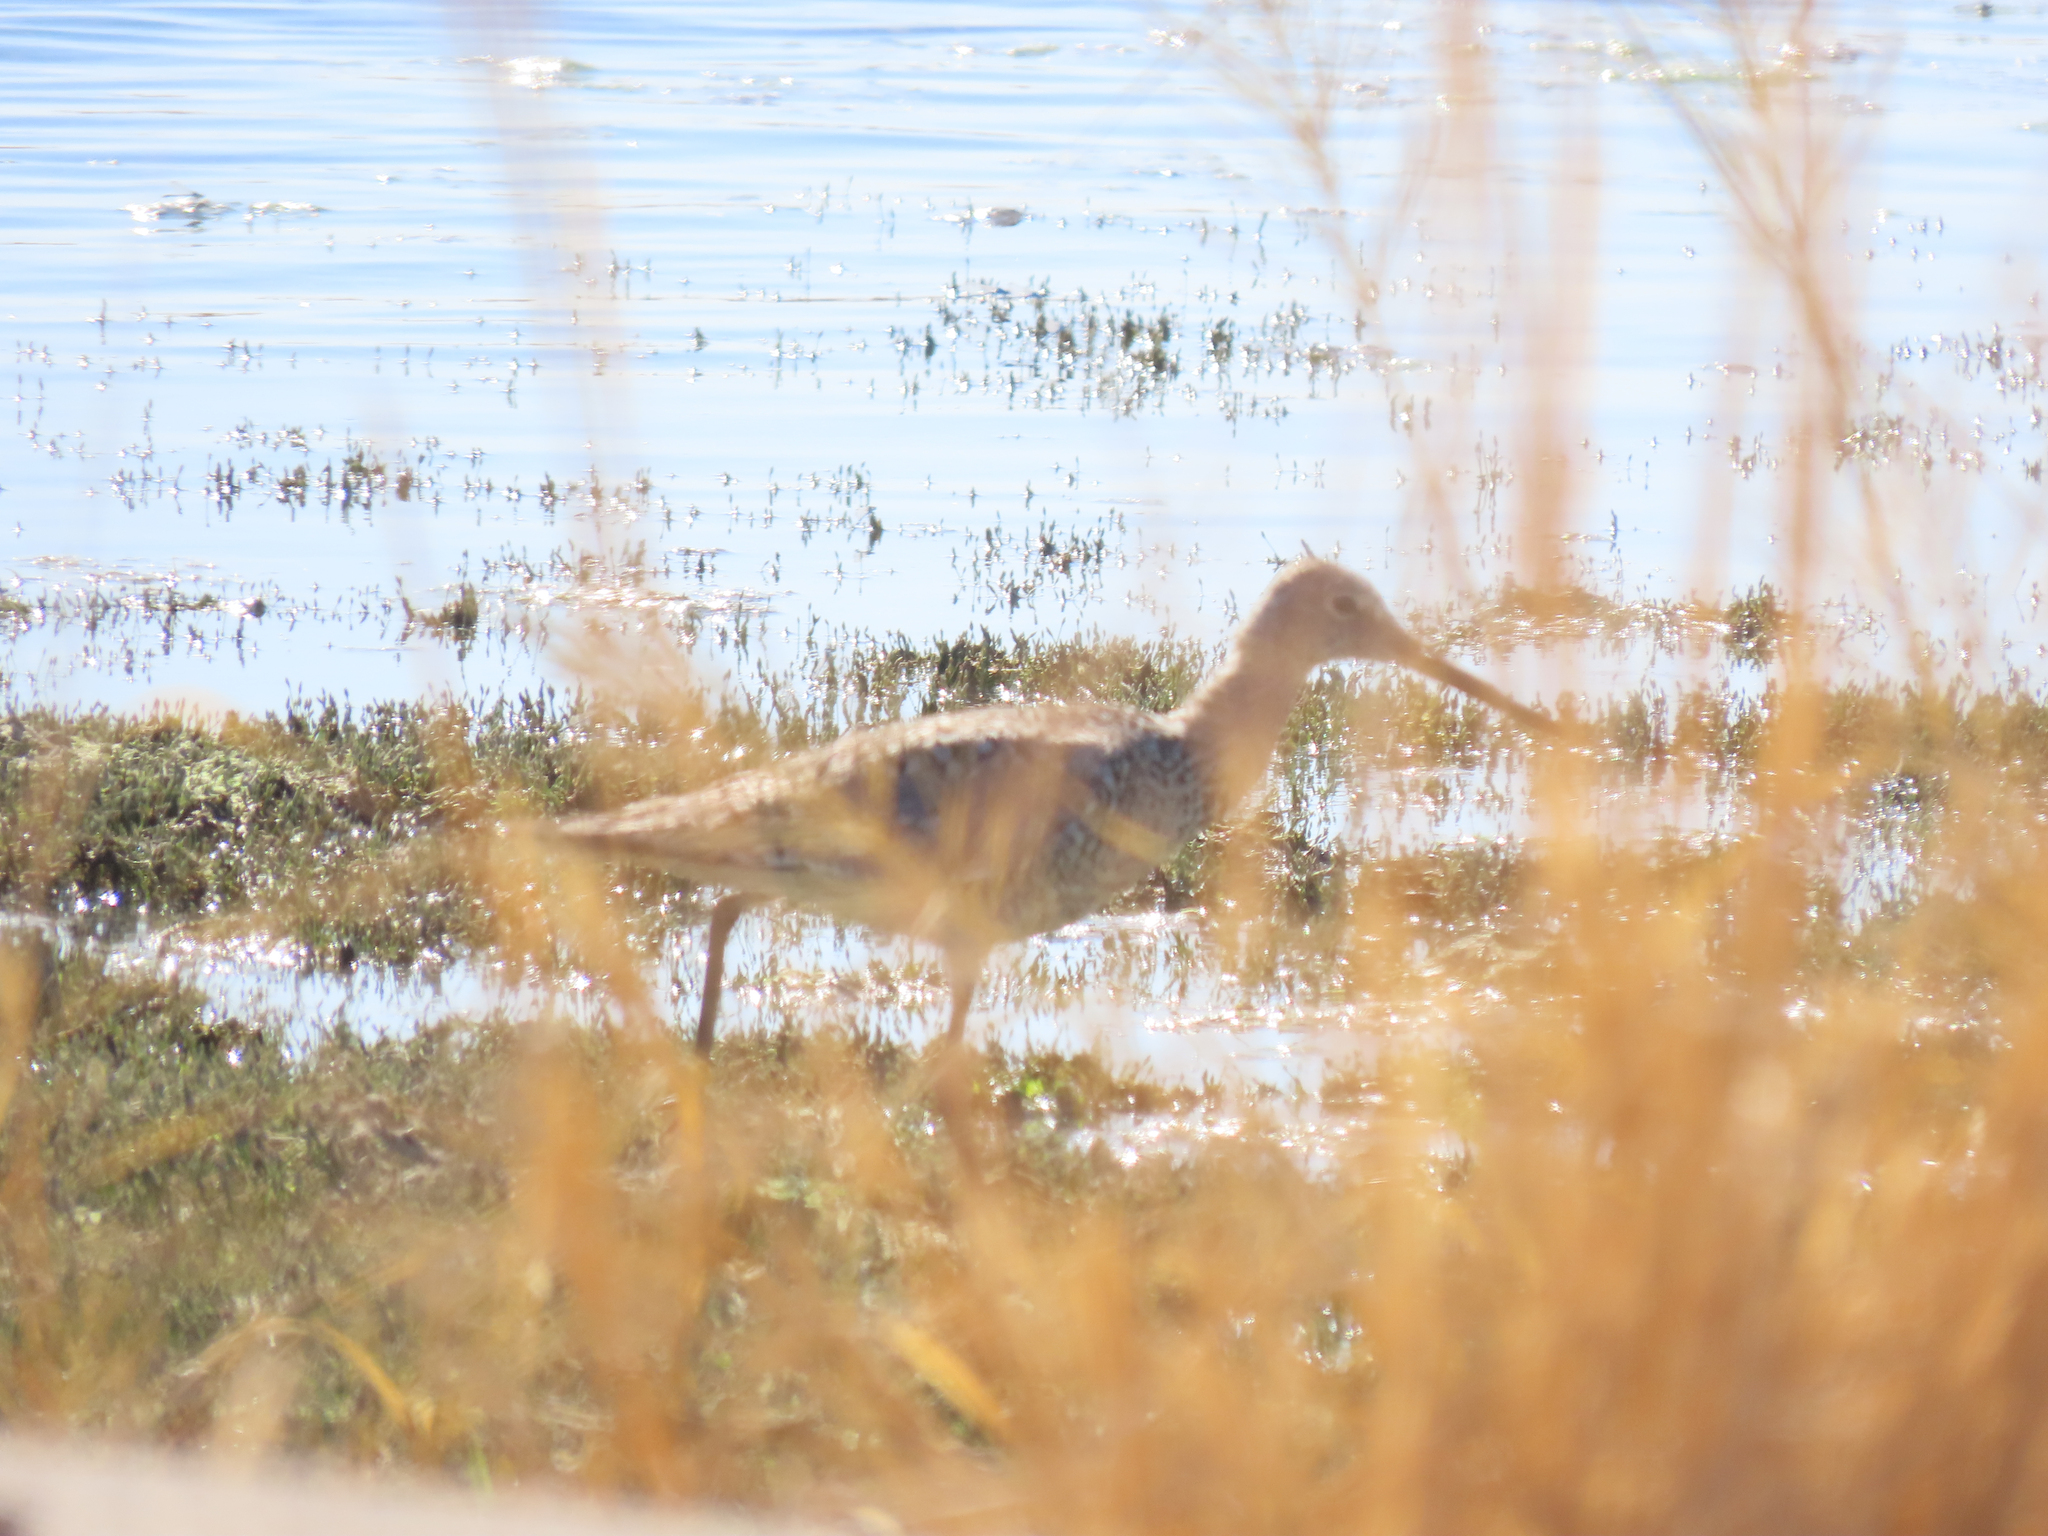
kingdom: Animalia
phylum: Chordata
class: Aves
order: Charadriiformes
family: Scolopacidae
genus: Tringa
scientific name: Tringa semipalmata
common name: Willet
